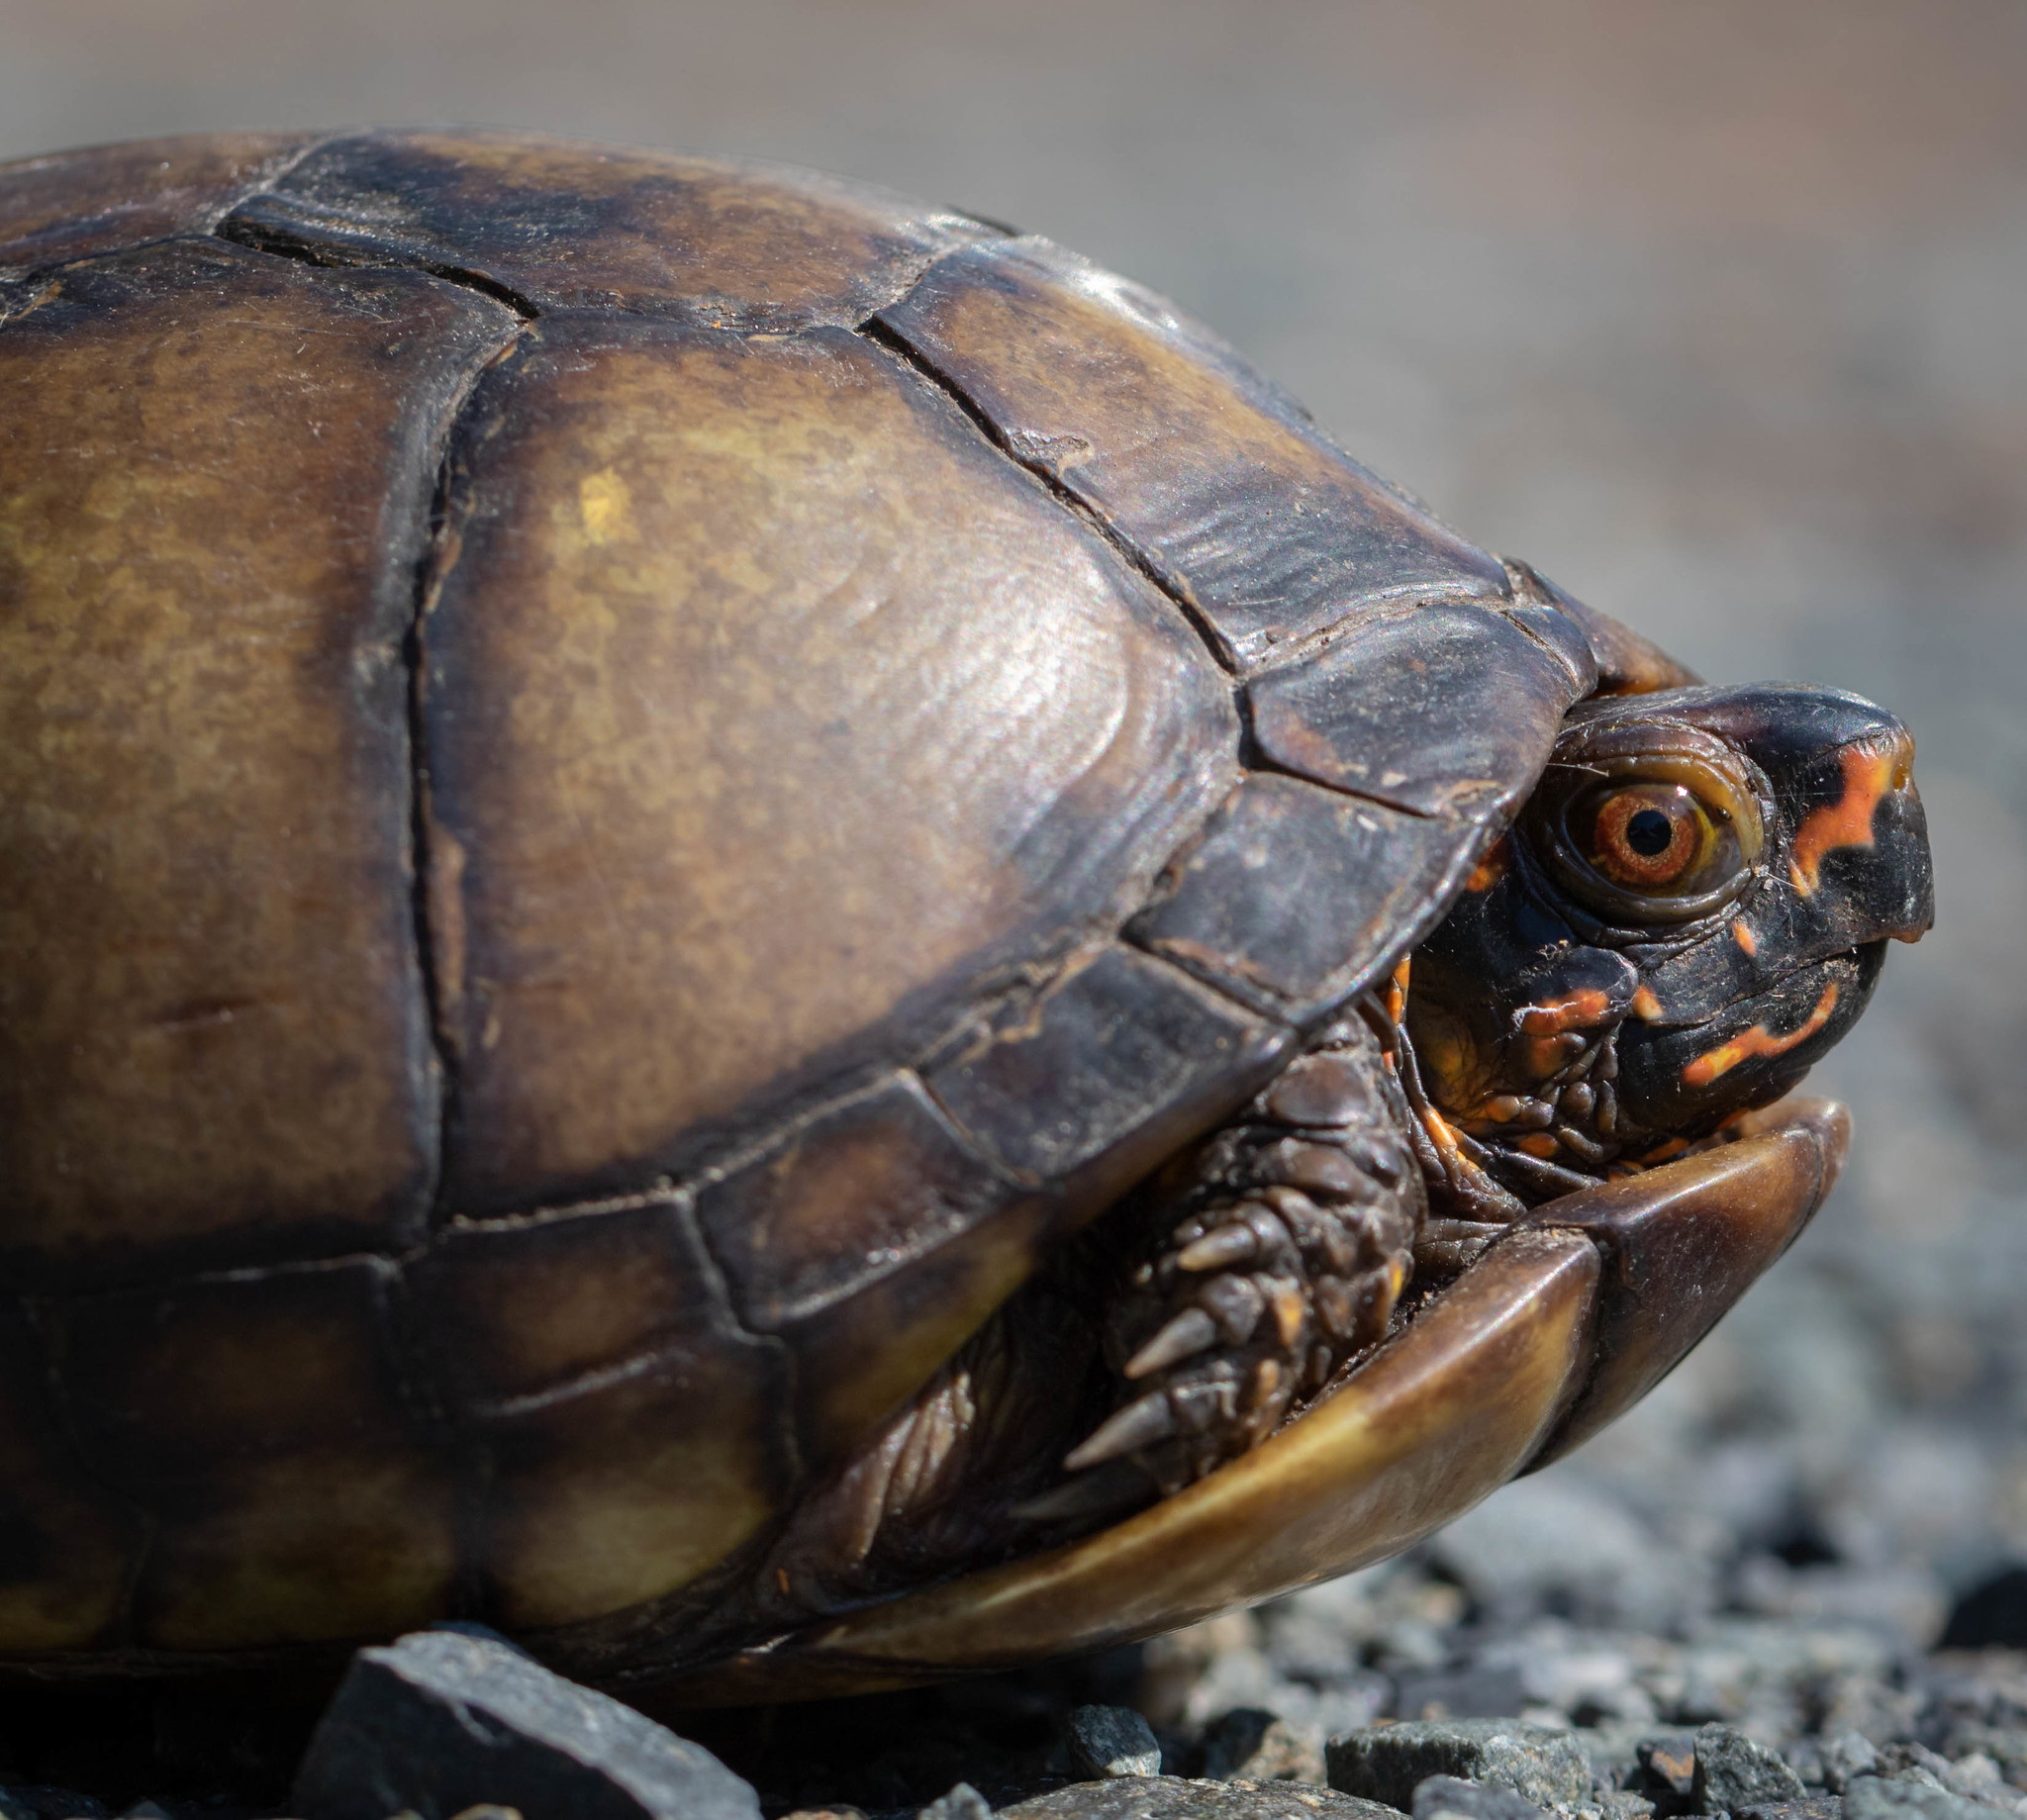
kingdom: Animalia
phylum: Chordata
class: Testudines
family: Emydidae
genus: Terrapene
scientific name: Terrapene carolina
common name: Common box turtle
